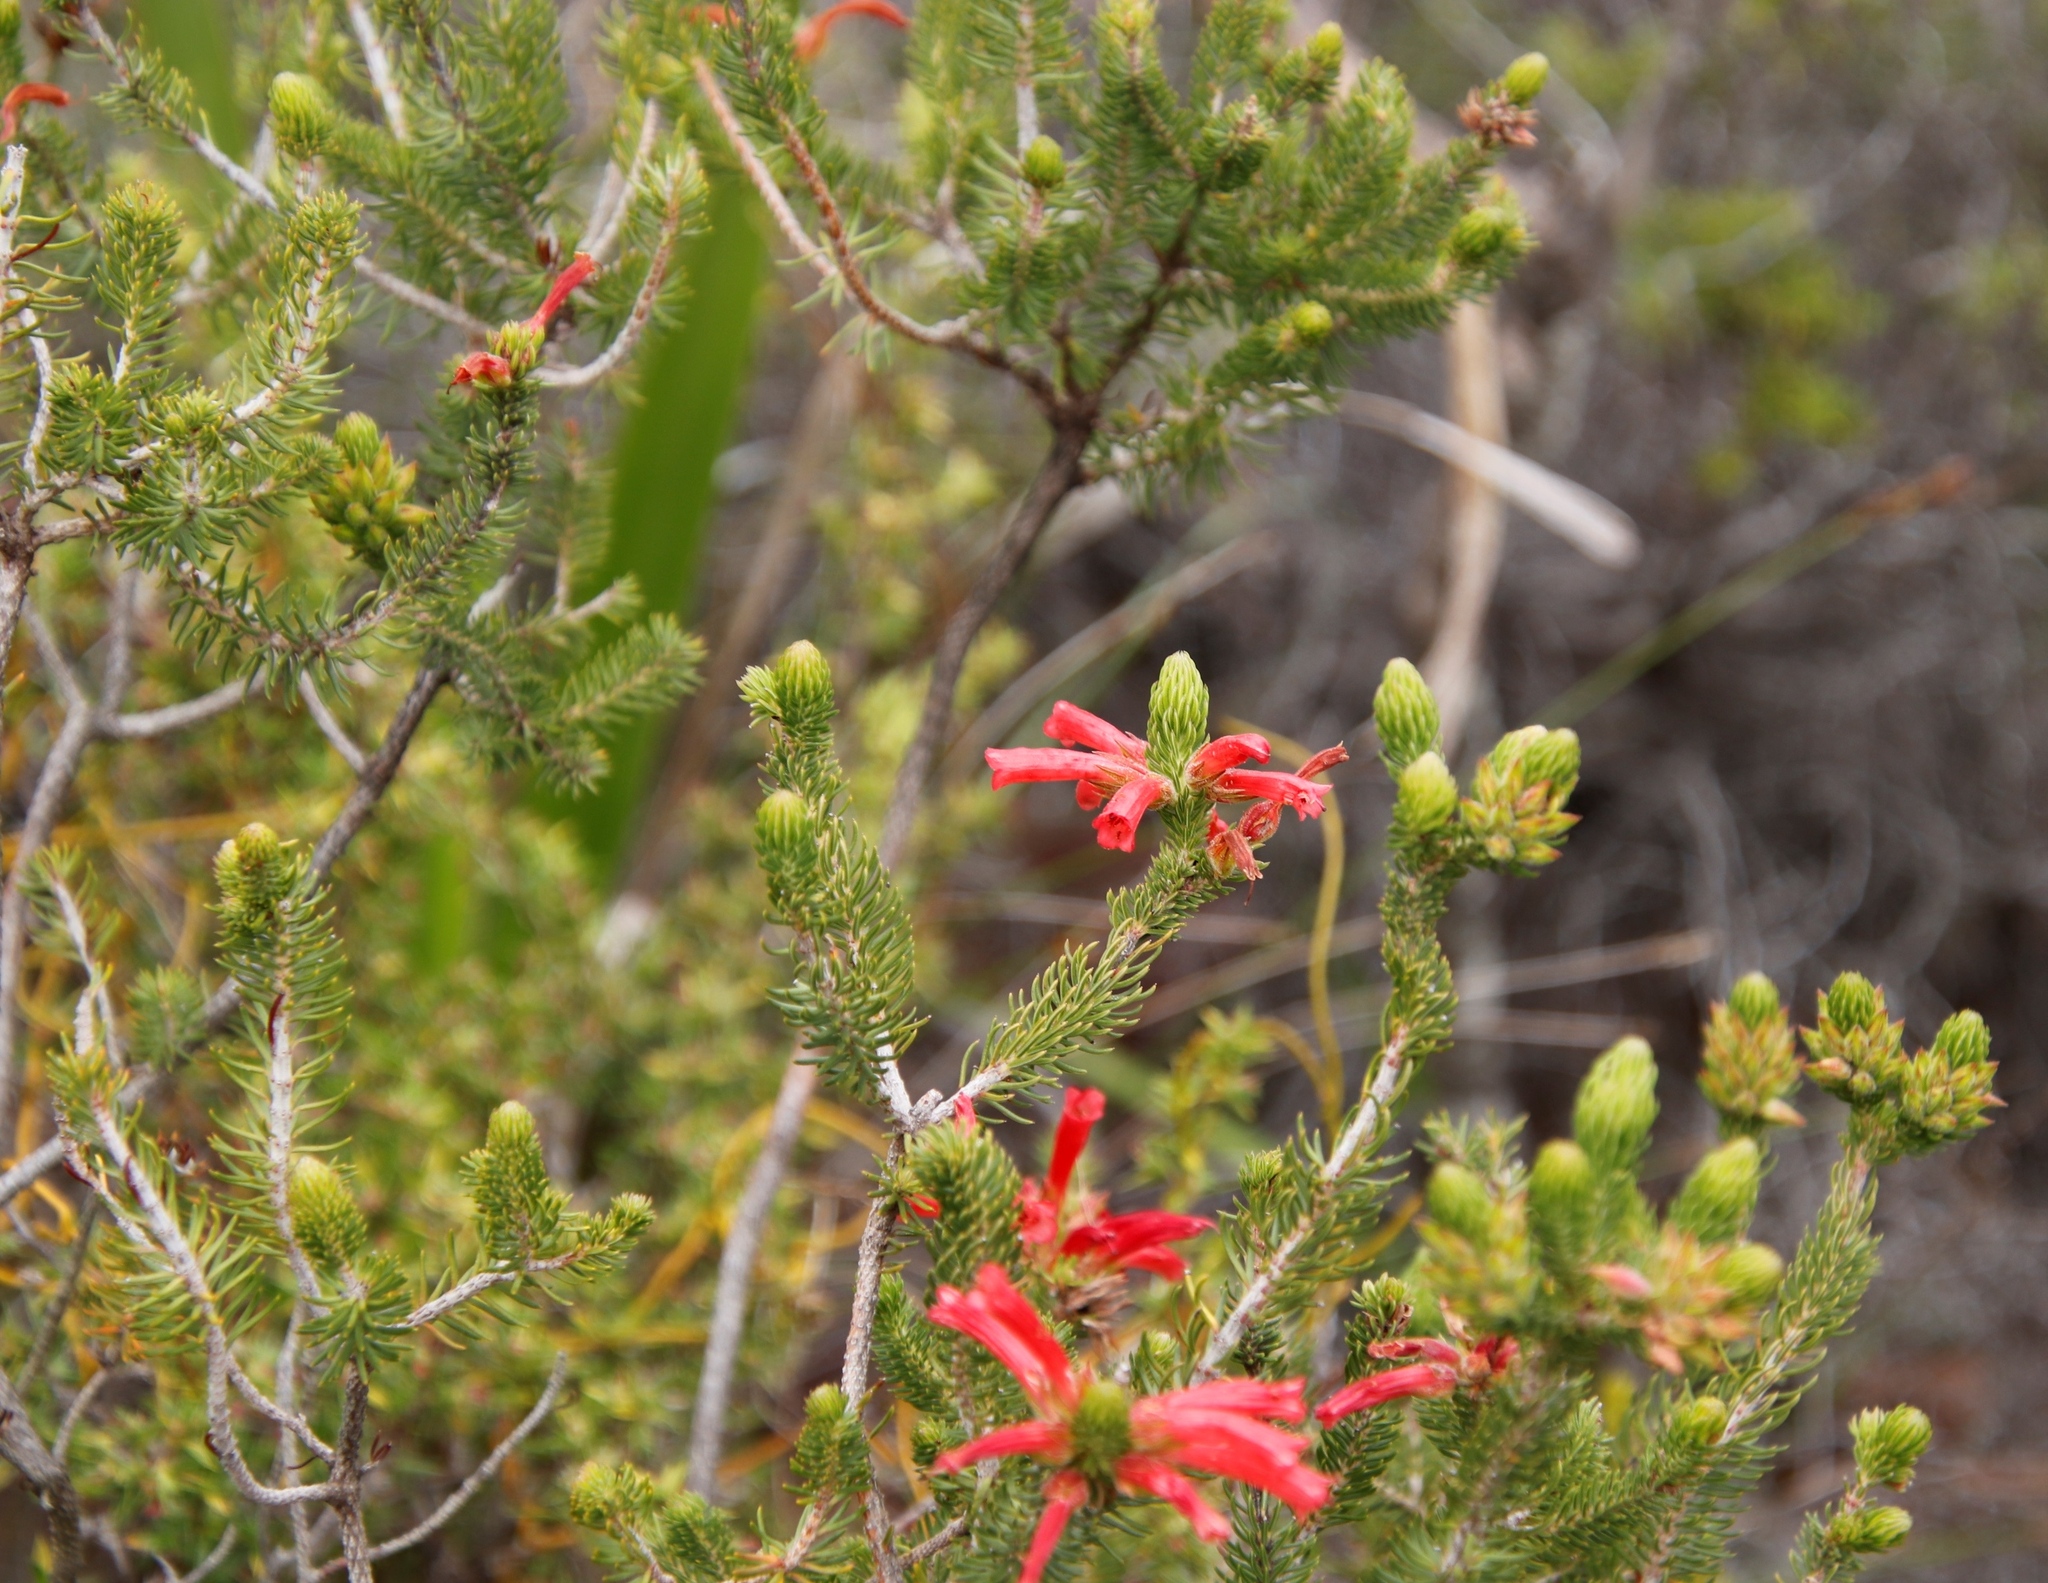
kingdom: Plantae
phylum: Tracheophyta
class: Magnoliopsida
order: Ericales
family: Ericaceae
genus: Erica
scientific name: Erica abietina
